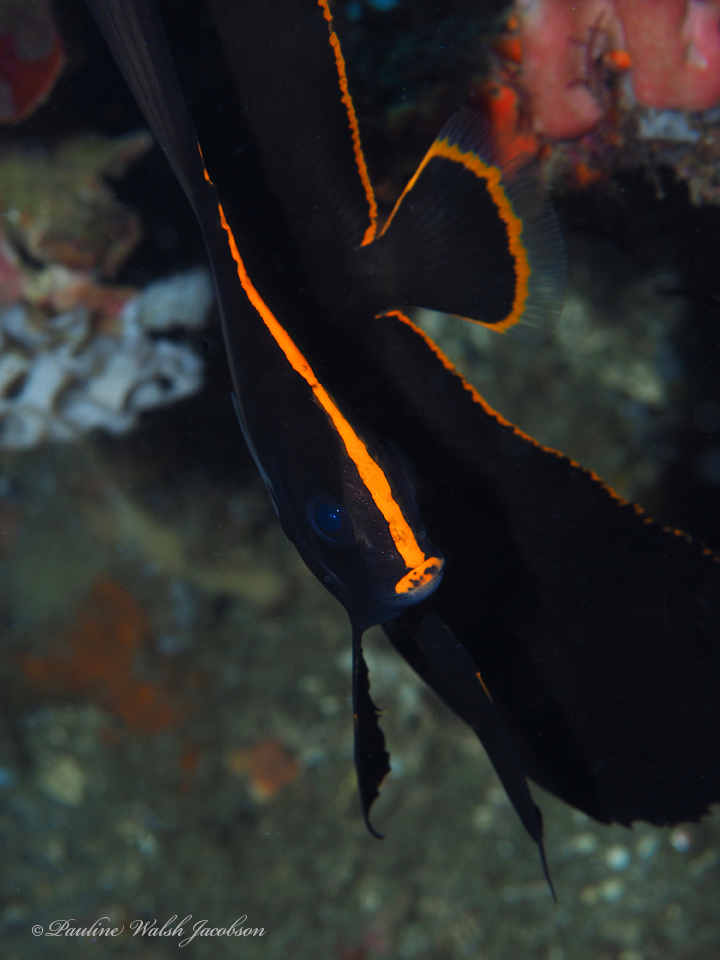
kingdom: Animalia
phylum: Chordata
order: Perciformes
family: Ephippidae
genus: Platax
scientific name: Platax pinnatus
